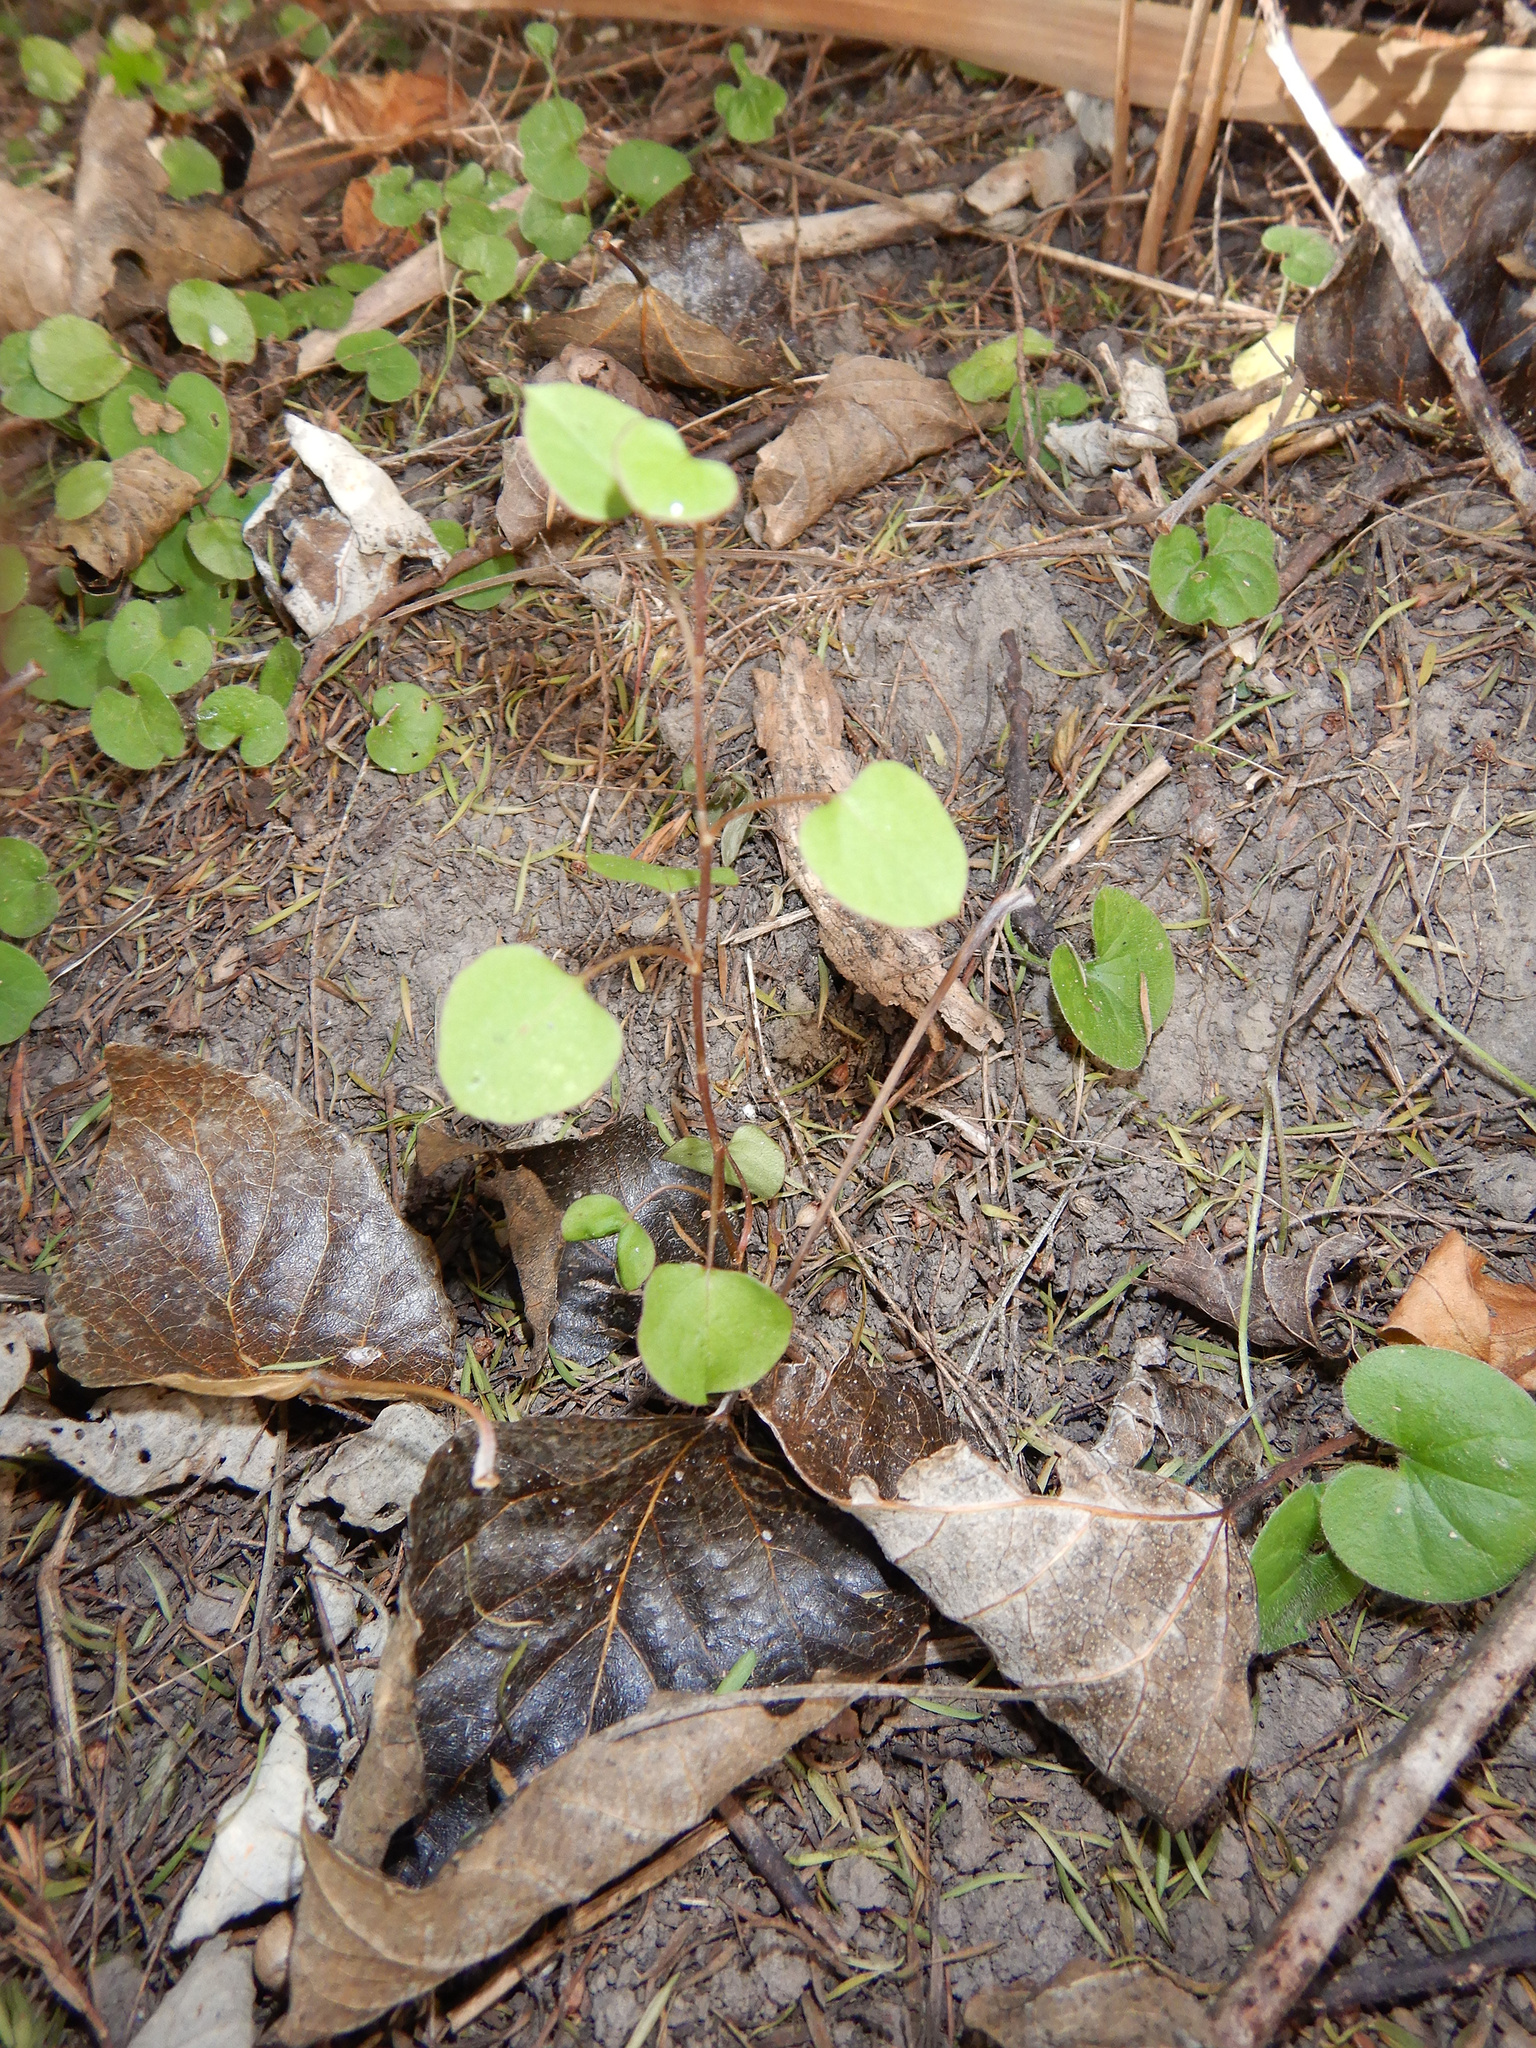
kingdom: Plantae
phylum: Tracheophyta
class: Magnoliopsida
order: Caryophyllales
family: Polygonaceae
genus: Muehlenbeckia
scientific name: Muehlenbeckia australis
